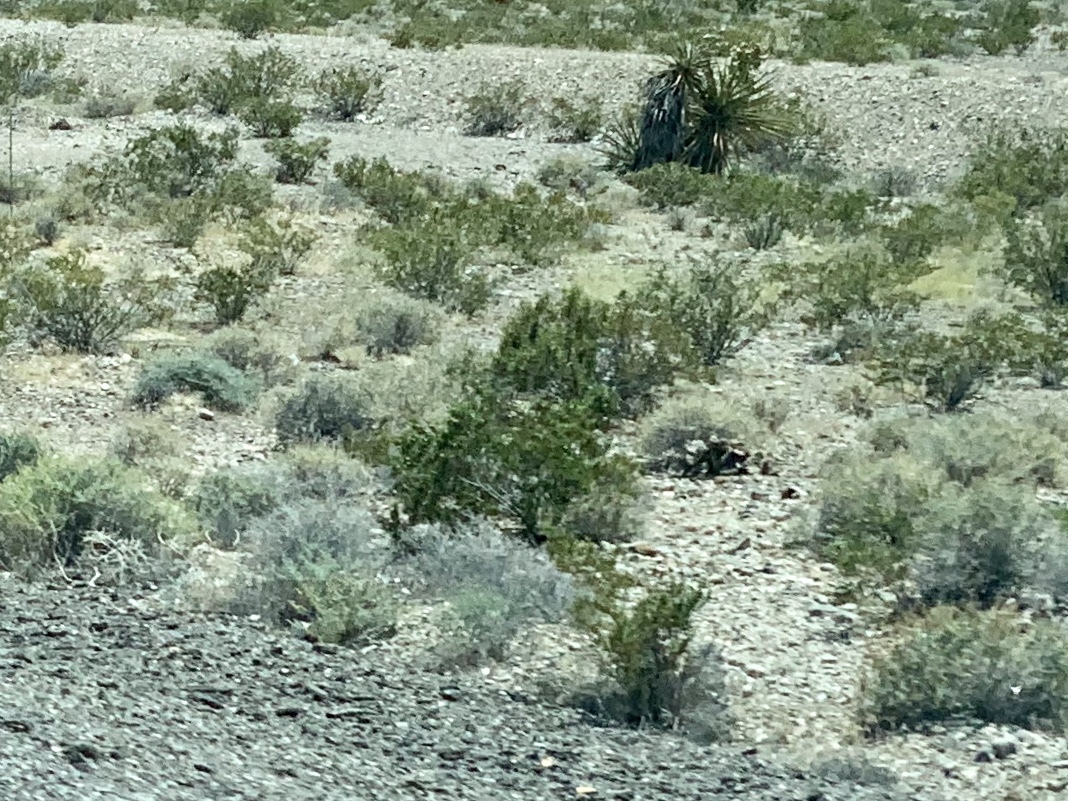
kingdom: Plantae
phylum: Tracheophyta
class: Magnoliopsida
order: Zygophyllales
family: Zygophyllaceae
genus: Larrea
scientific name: Larrea tridentata
